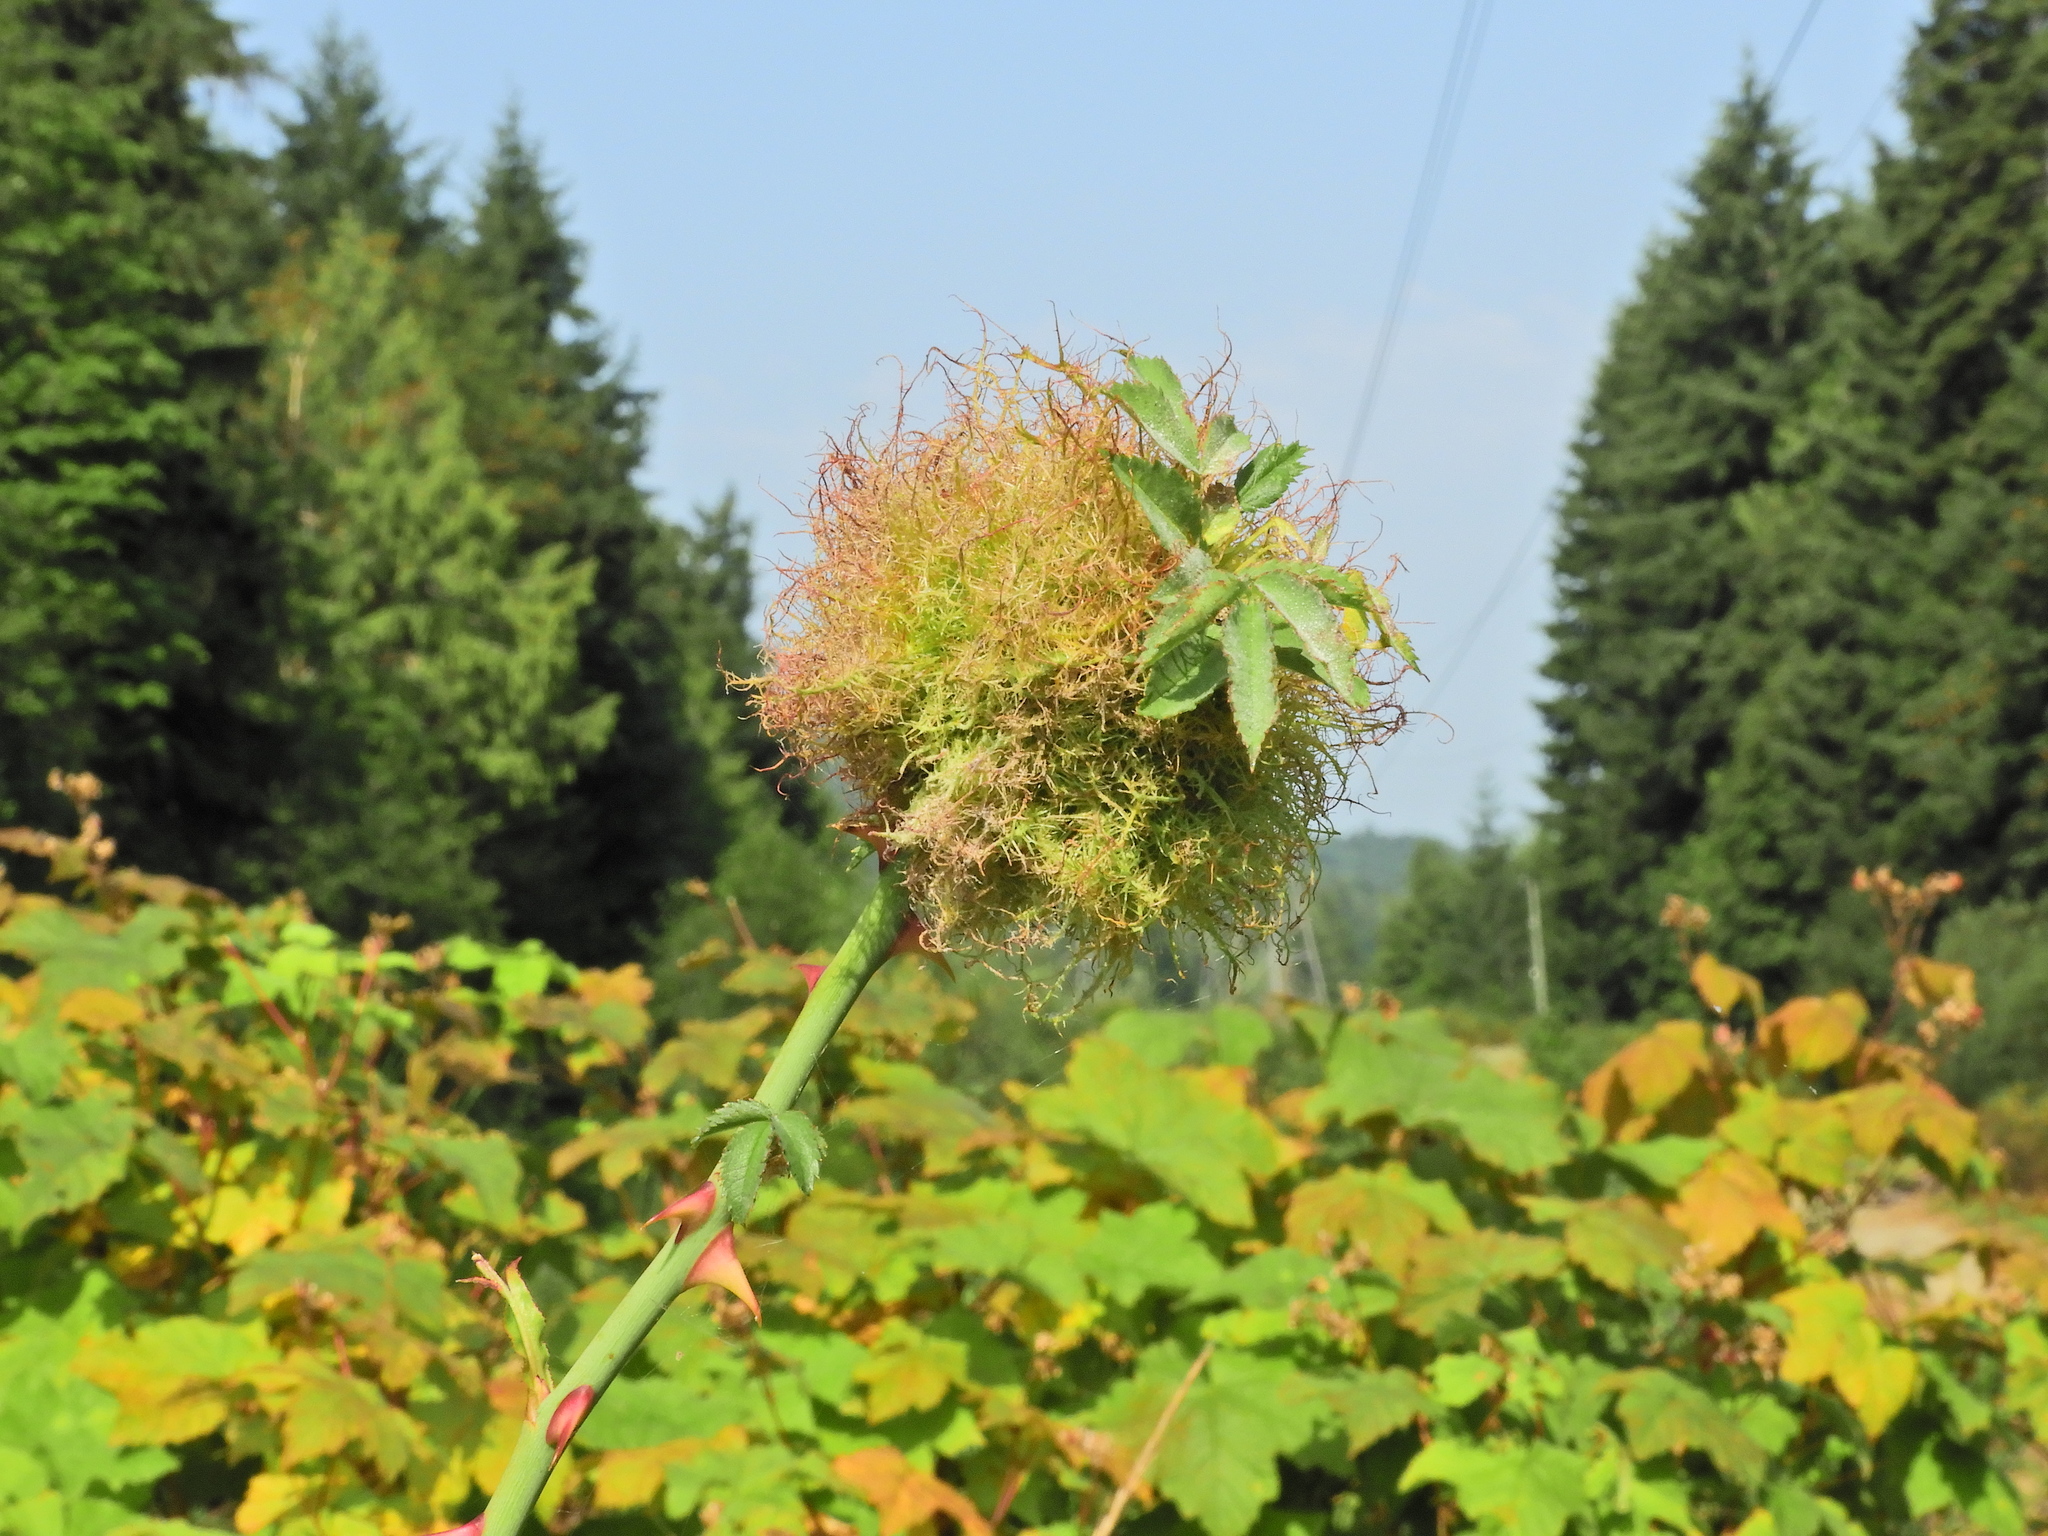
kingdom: Animalia
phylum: Arthropoda
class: Insecta
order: Hymenoptera
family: Cynipidae
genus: Diplolepis
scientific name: Diplolepis rosae
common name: Bedeguar gall
